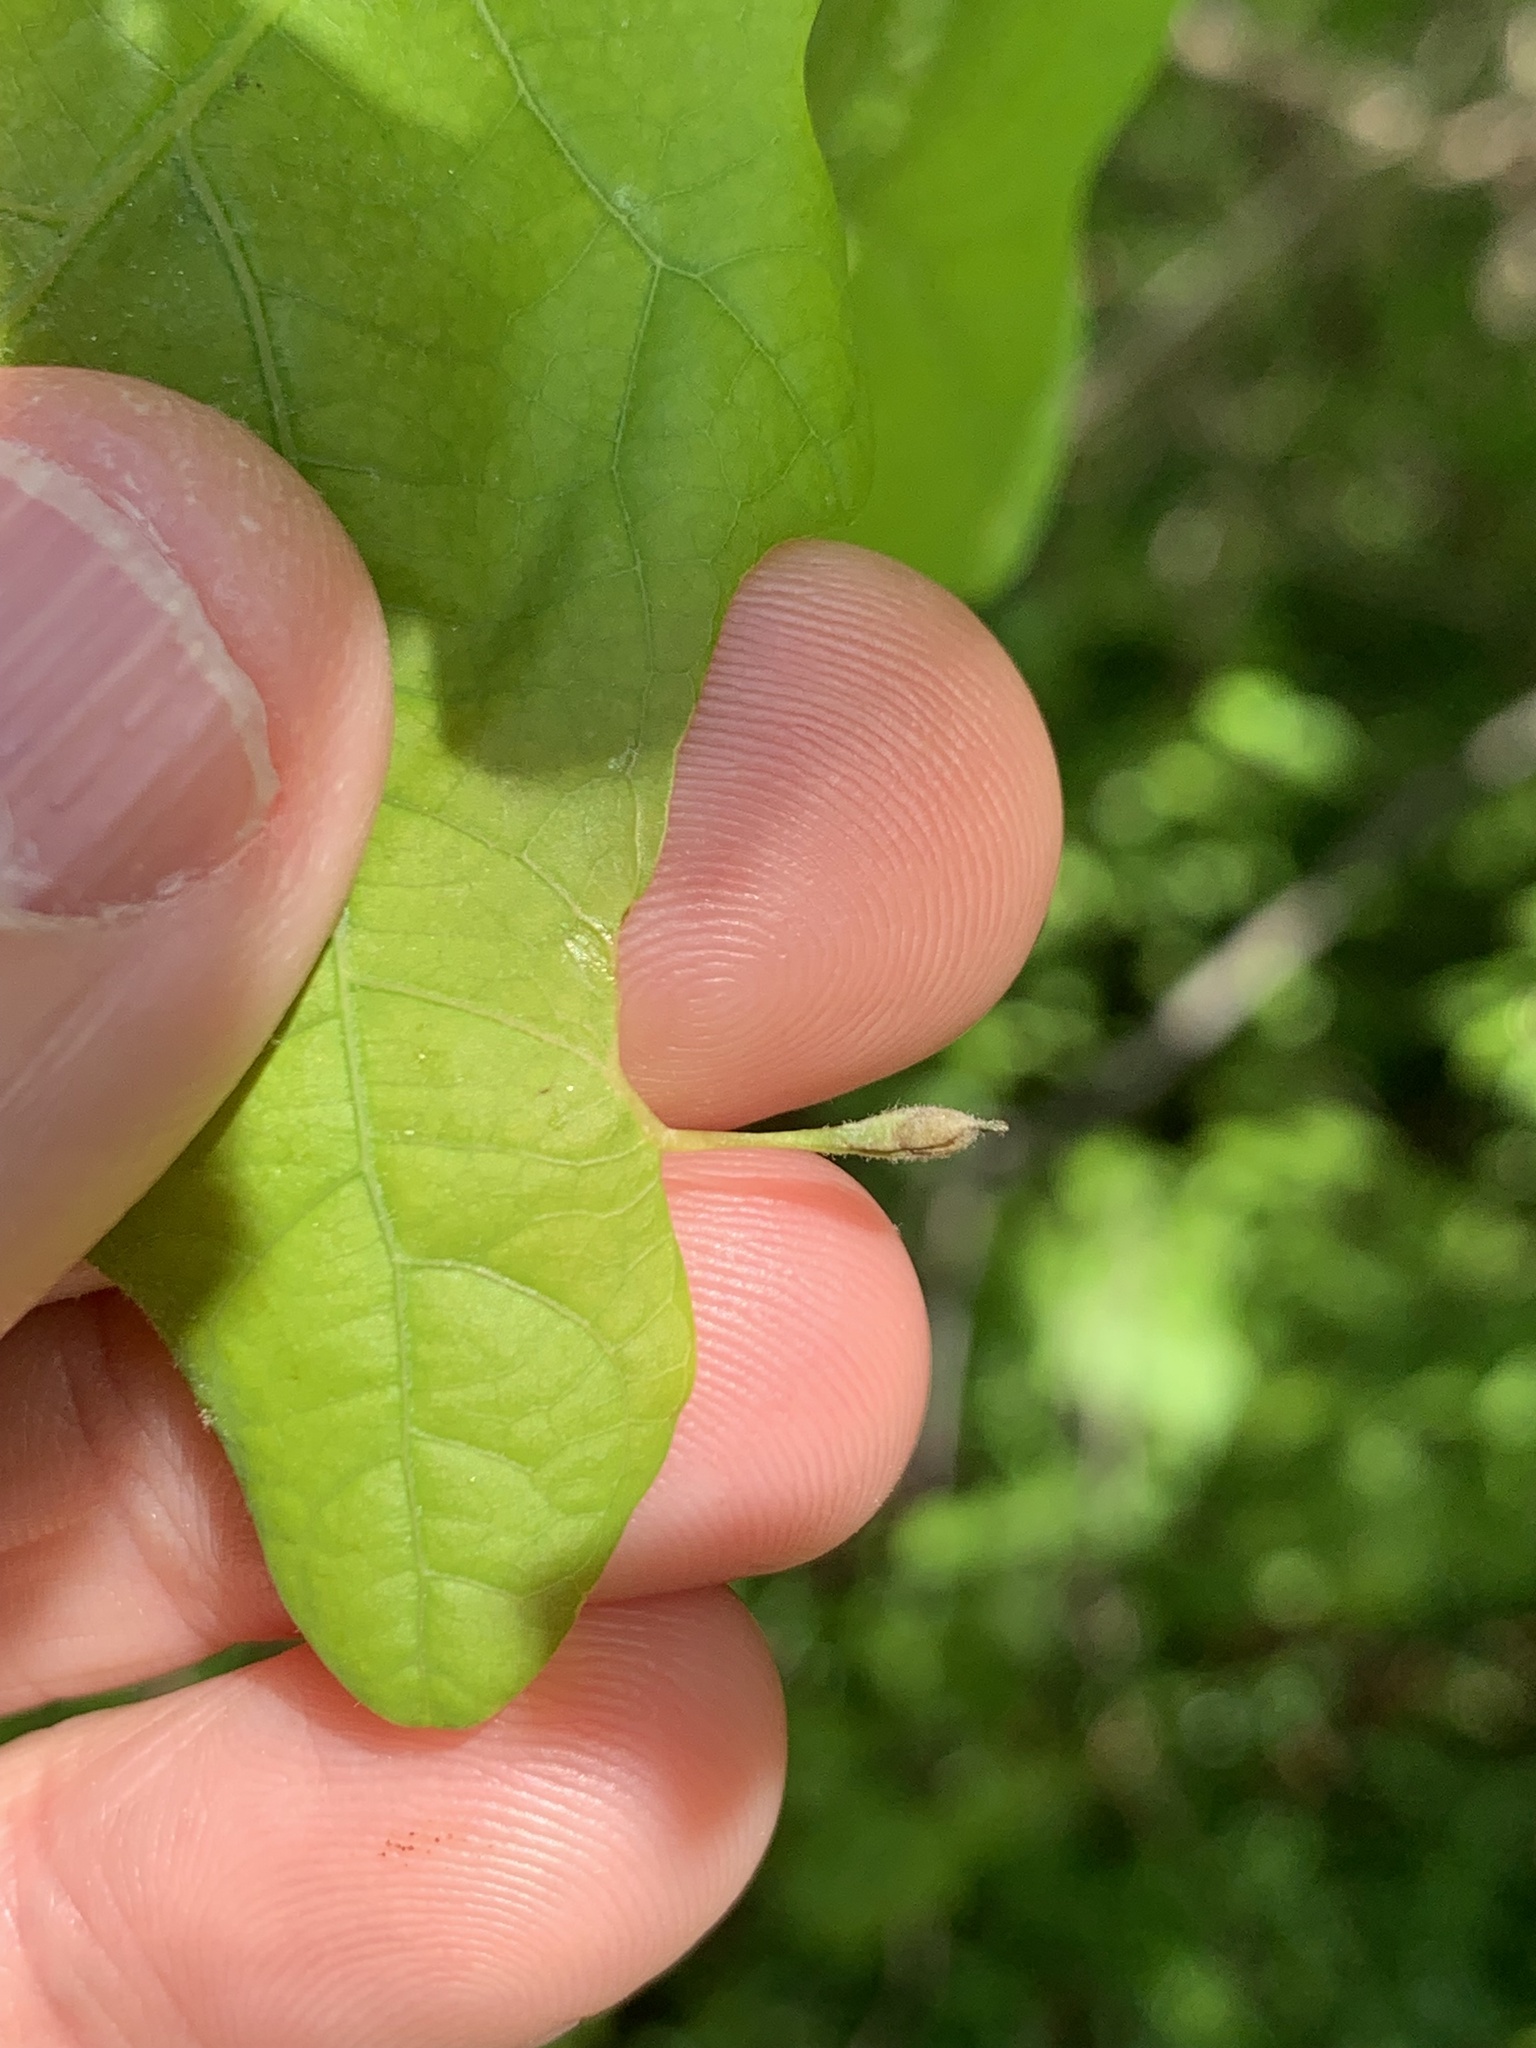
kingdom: Animalia
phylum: Arthropoda
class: Insecta
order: Hymenoptera
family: Cynipidae
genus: Andricus
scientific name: Andricus
